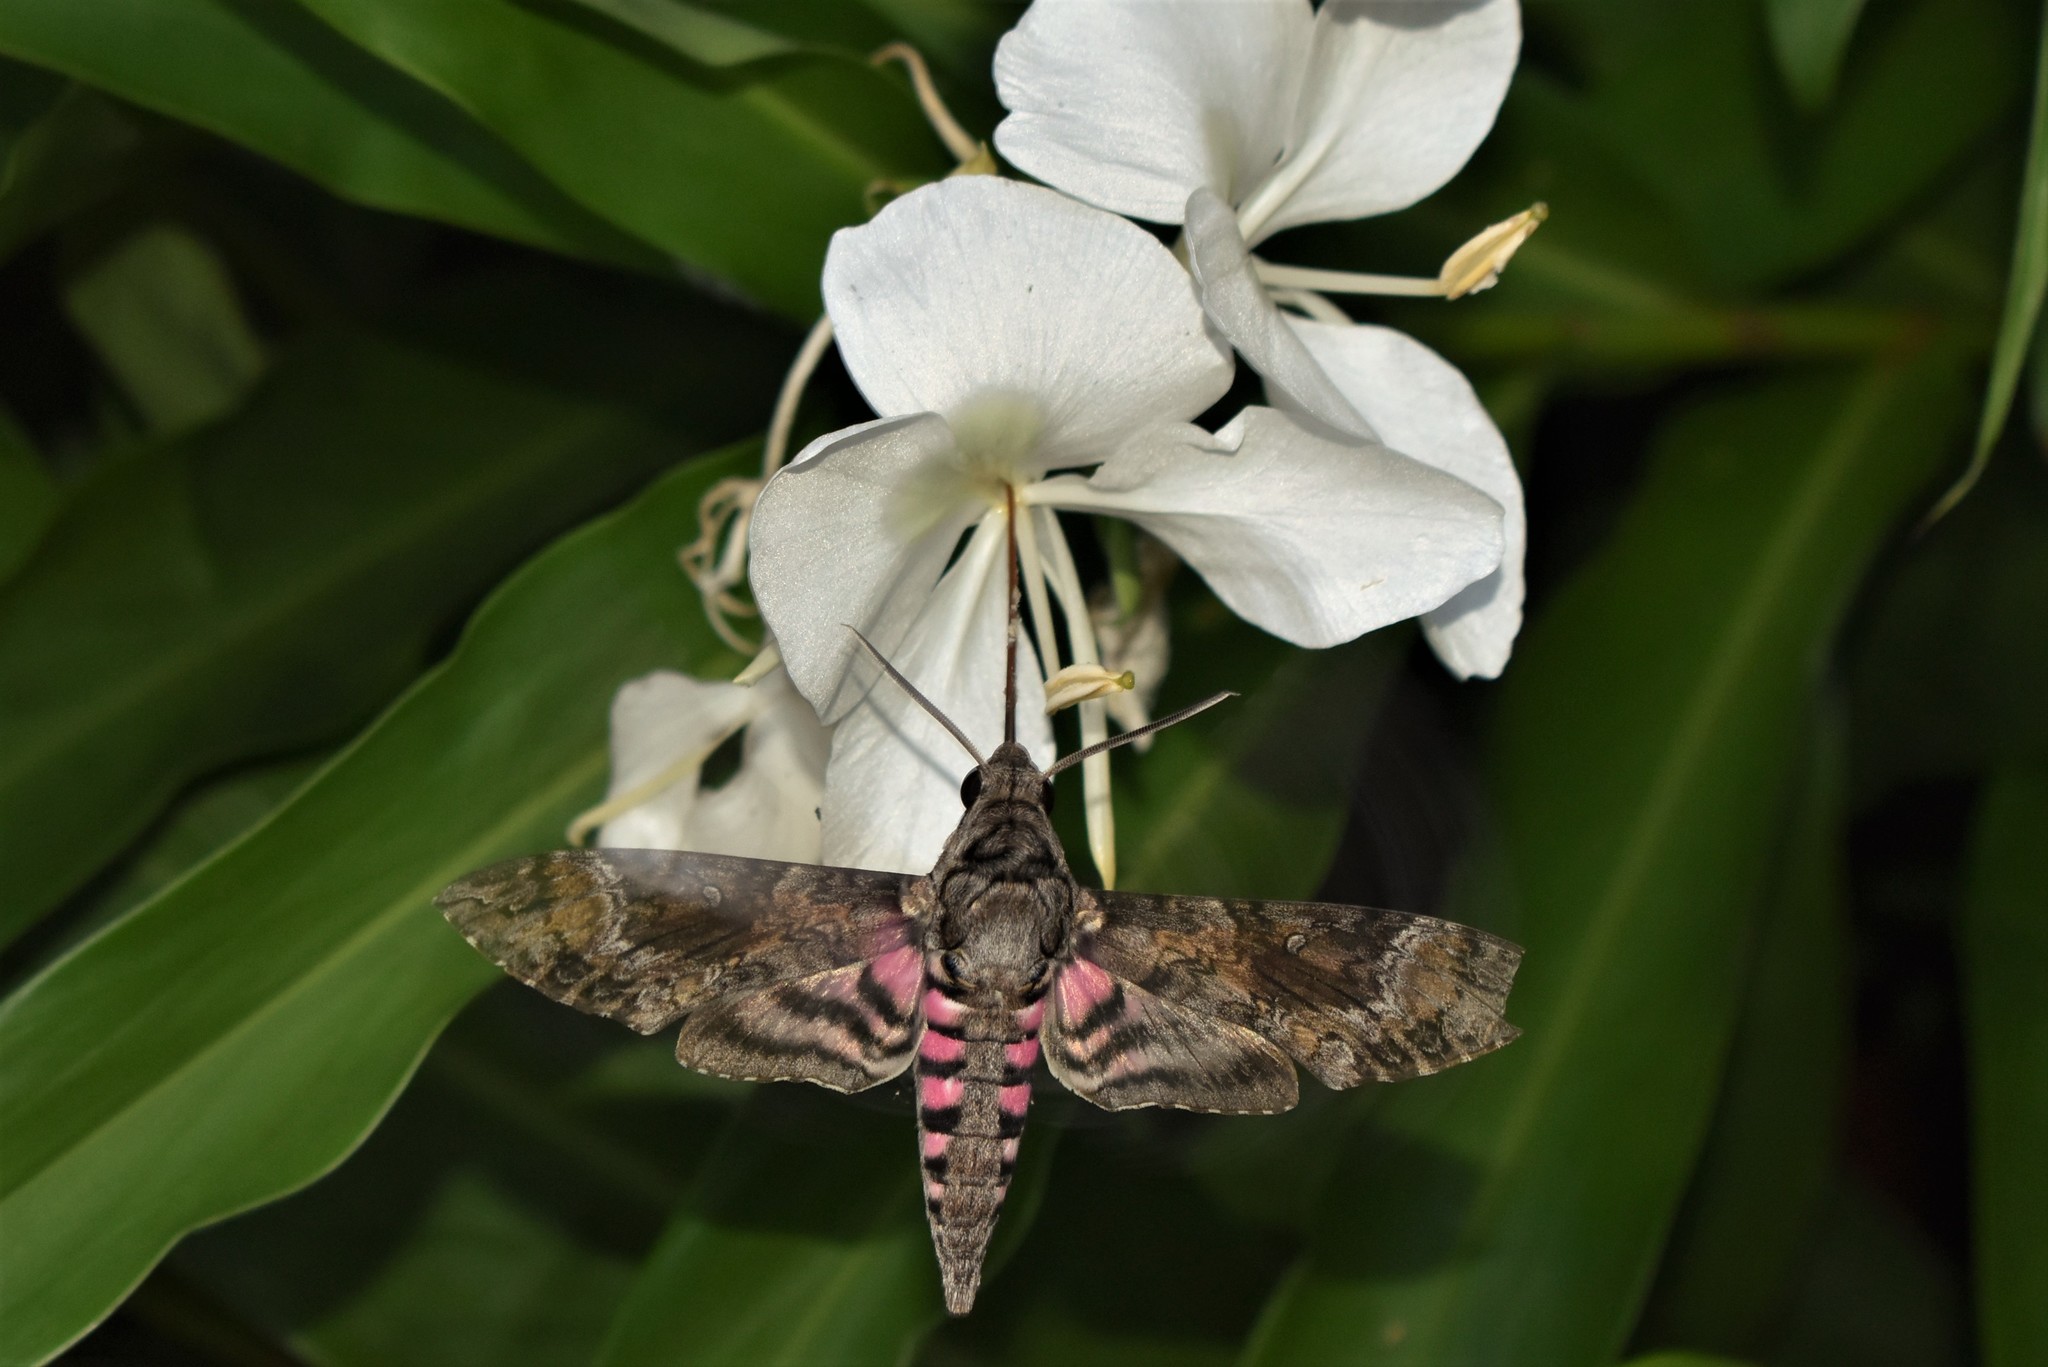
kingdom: Animalia
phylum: Arthropoda
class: Insecta
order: Lepidoptera
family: Sphingidae
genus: Agrius
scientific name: Agrius cingulata
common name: Pink-spotted hawkmoth
